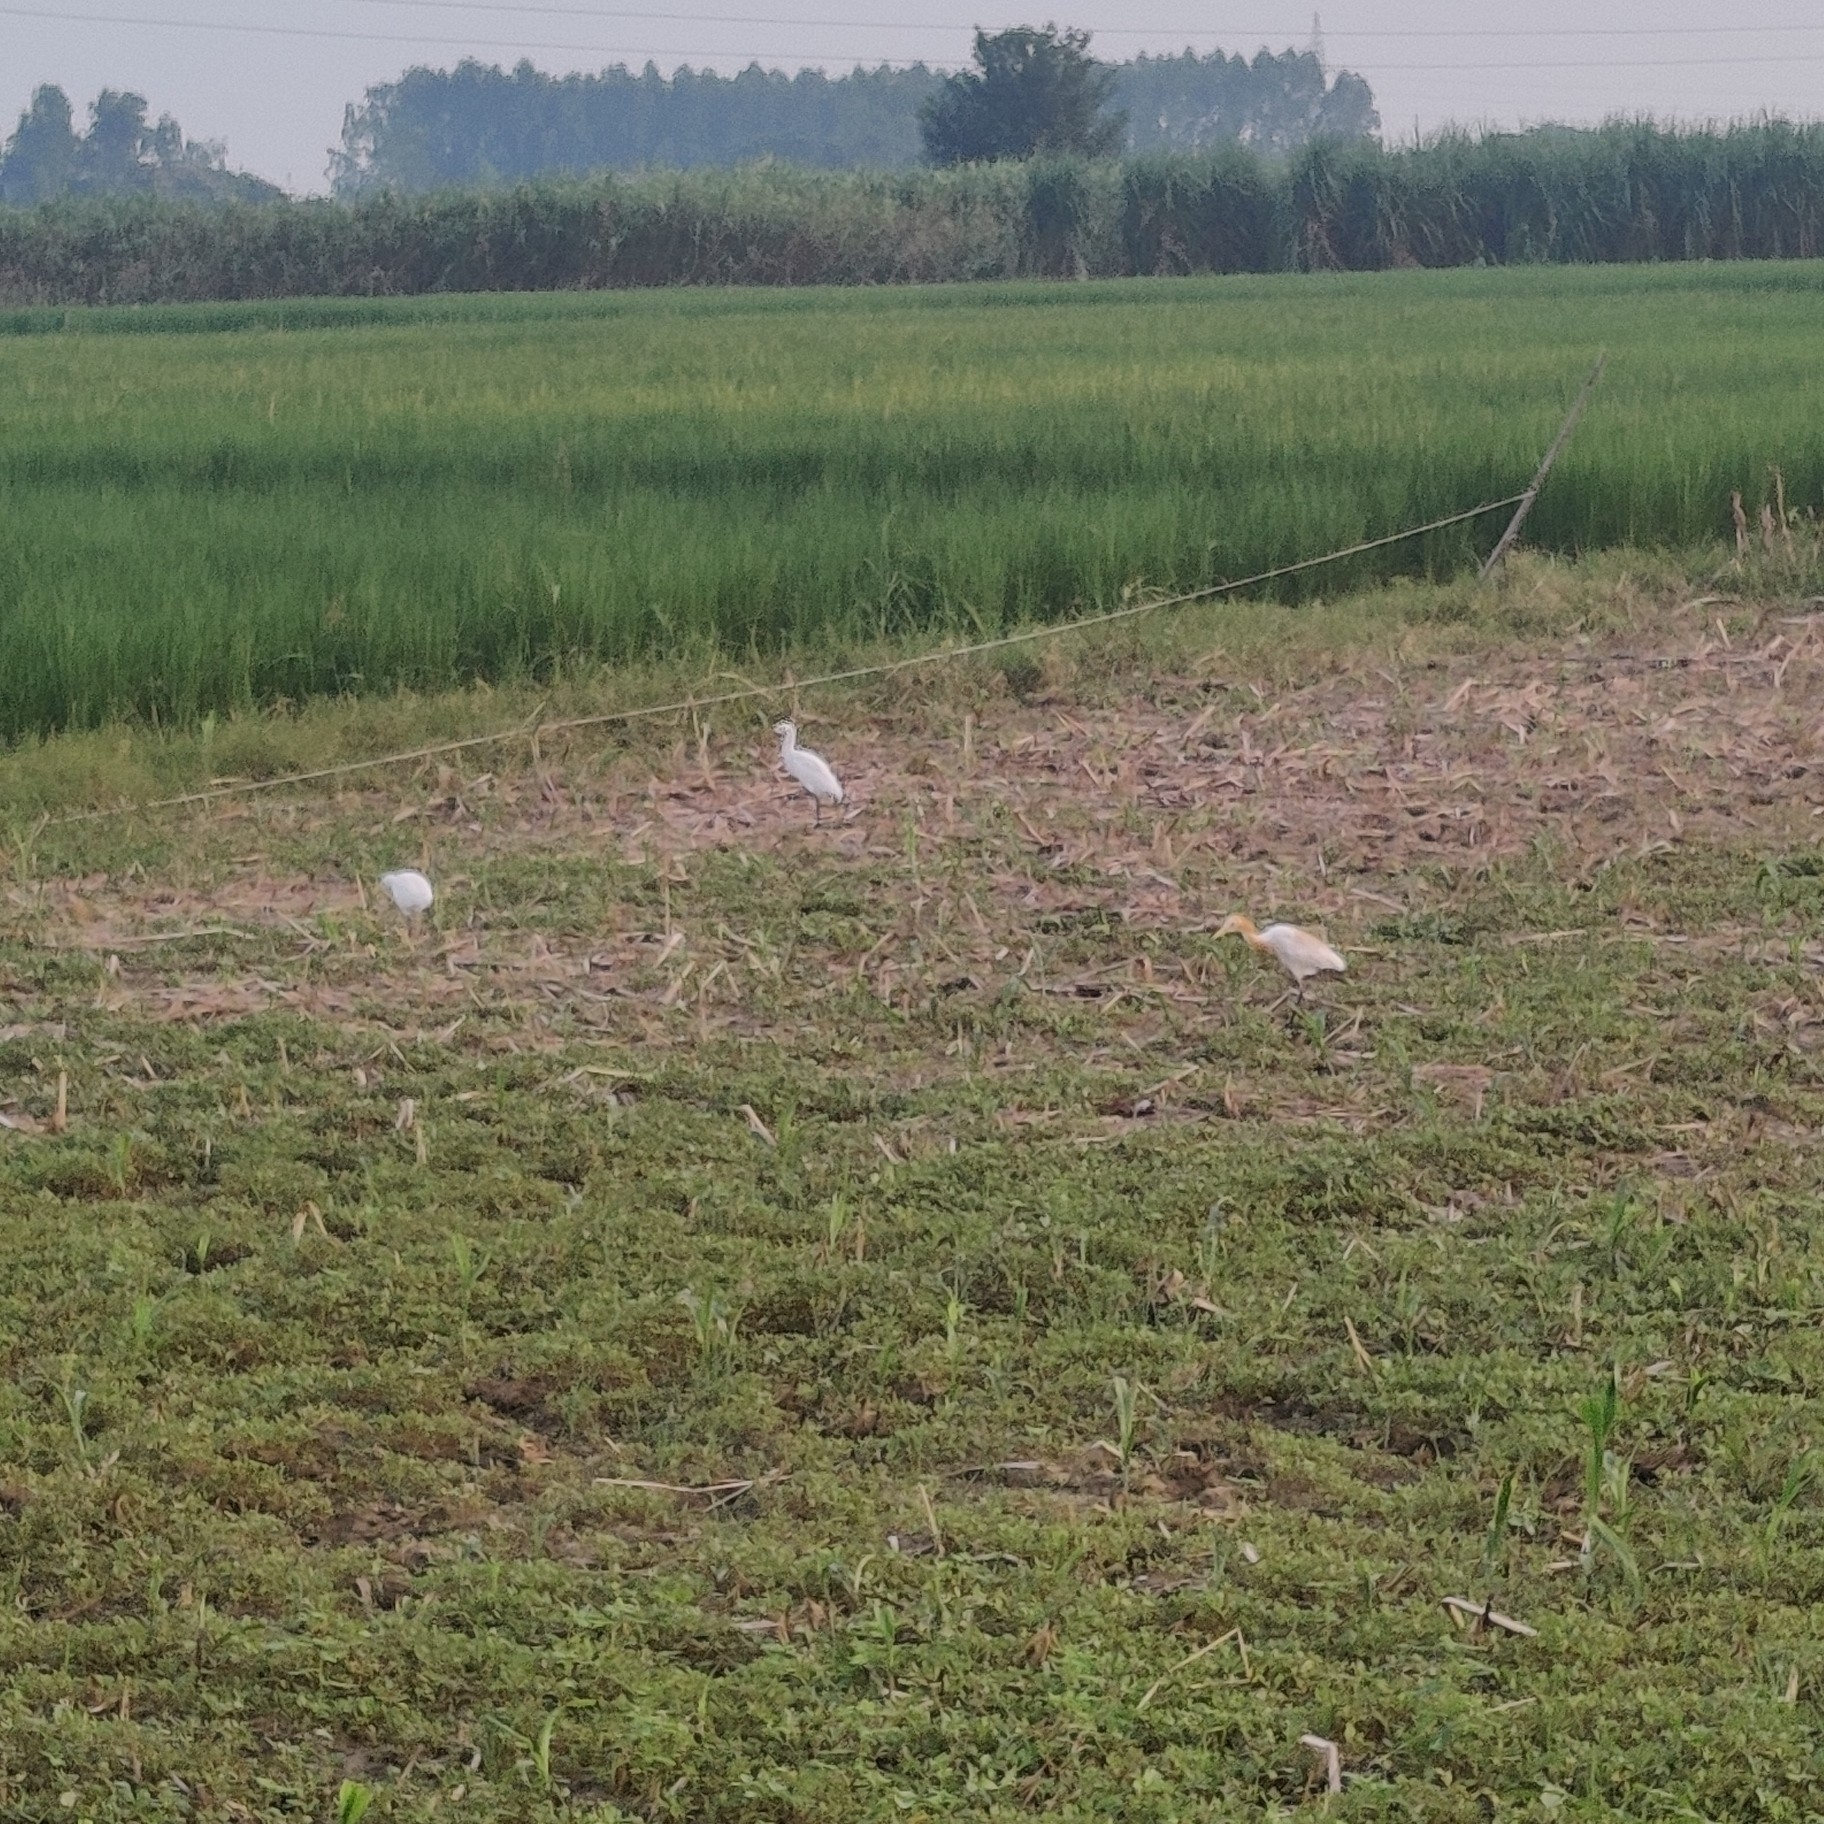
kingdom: Animalia
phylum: Chordata
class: Aves
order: Pelecaniformes
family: Ardeidae
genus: Bubulcus
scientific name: Bubulcus coromandus
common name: Eastern cattle egret
